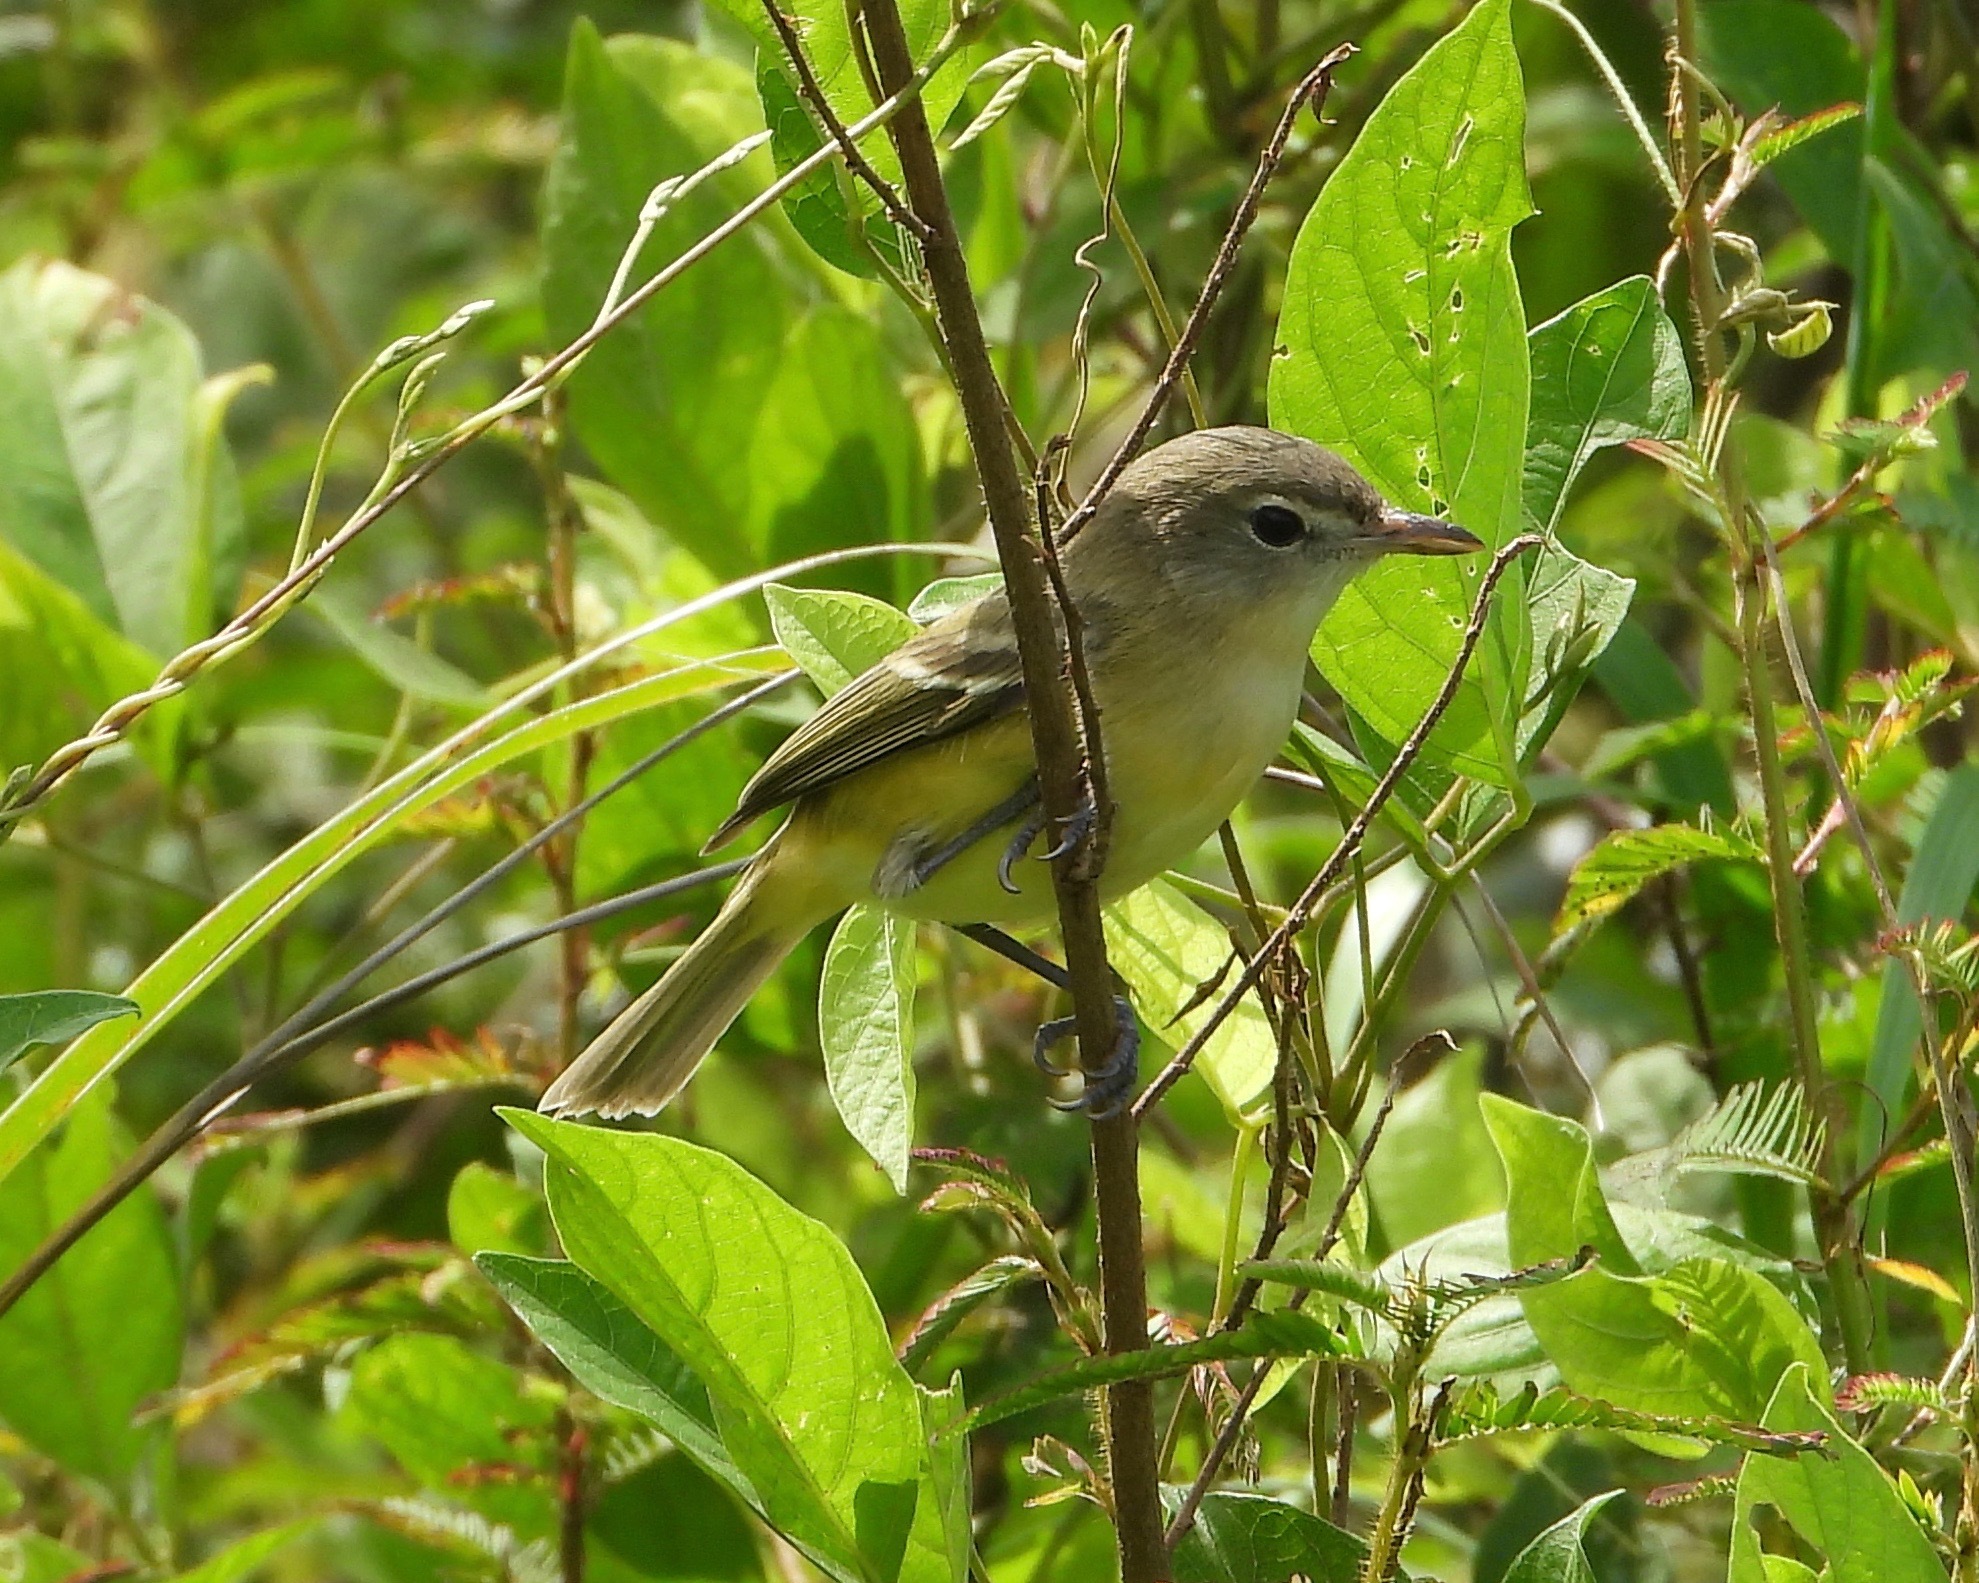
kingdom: Animalia
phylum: Chordata
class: Aves
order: Passeriformes
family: Vireonidae
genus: Vireo
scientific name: Vireo bellii
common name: Bell's vireo
